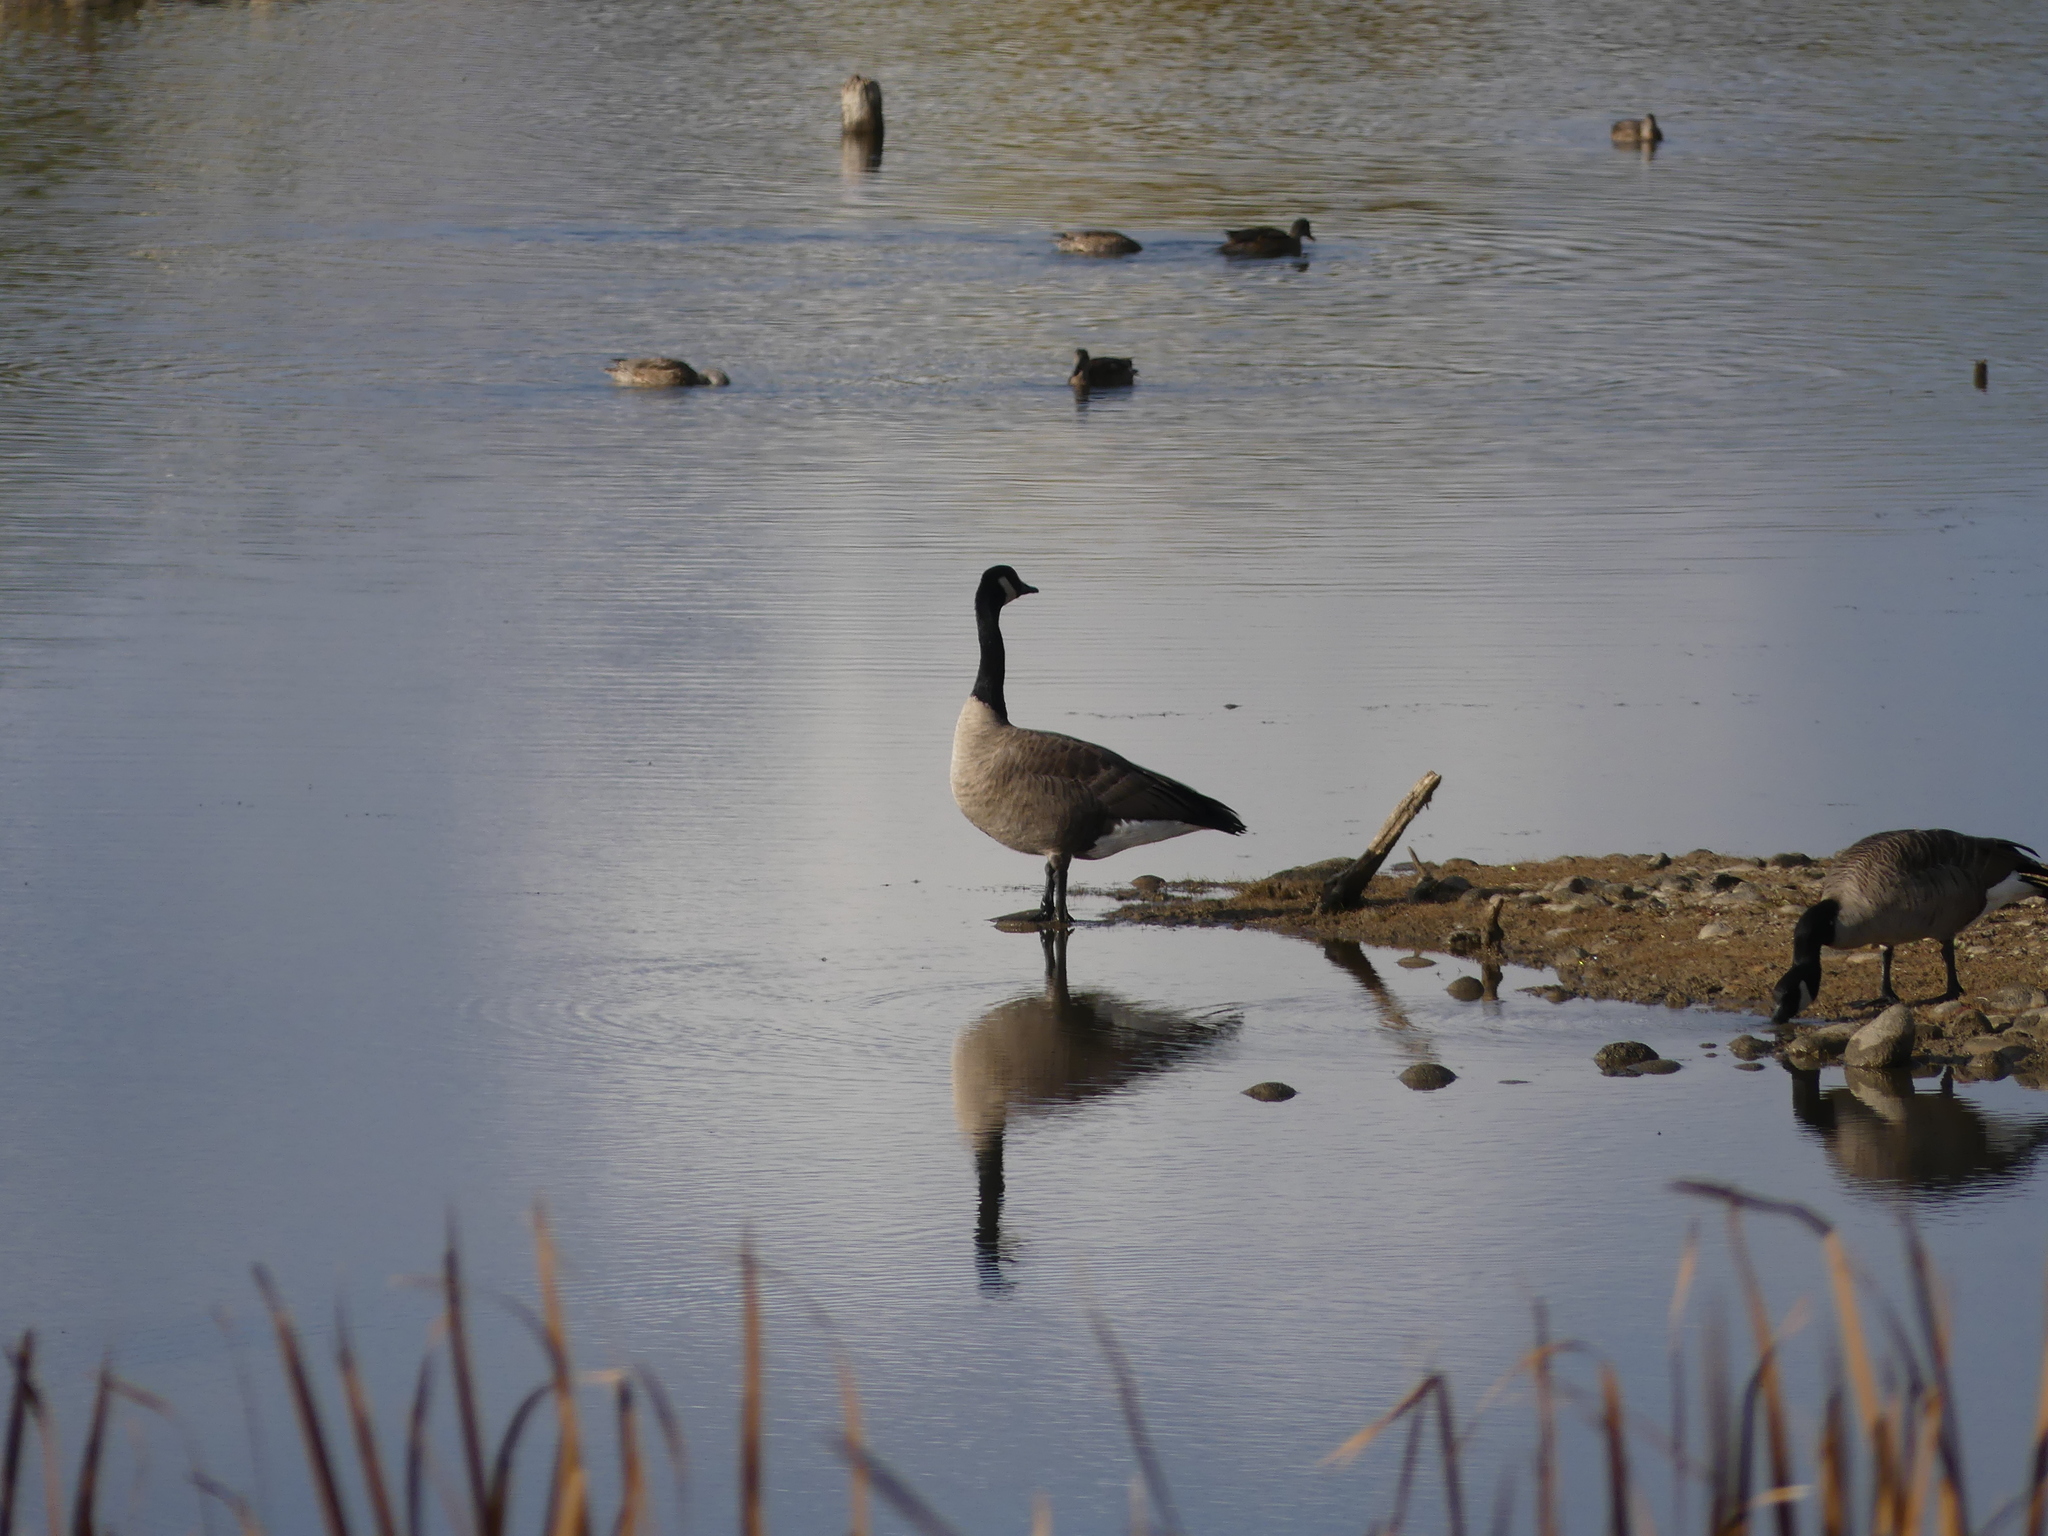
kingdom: Animalia
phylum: Chordata
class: Aves
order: Anseriformes
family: Anatidae
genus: Branta
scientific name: Branta canadensis
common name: Canada goose
